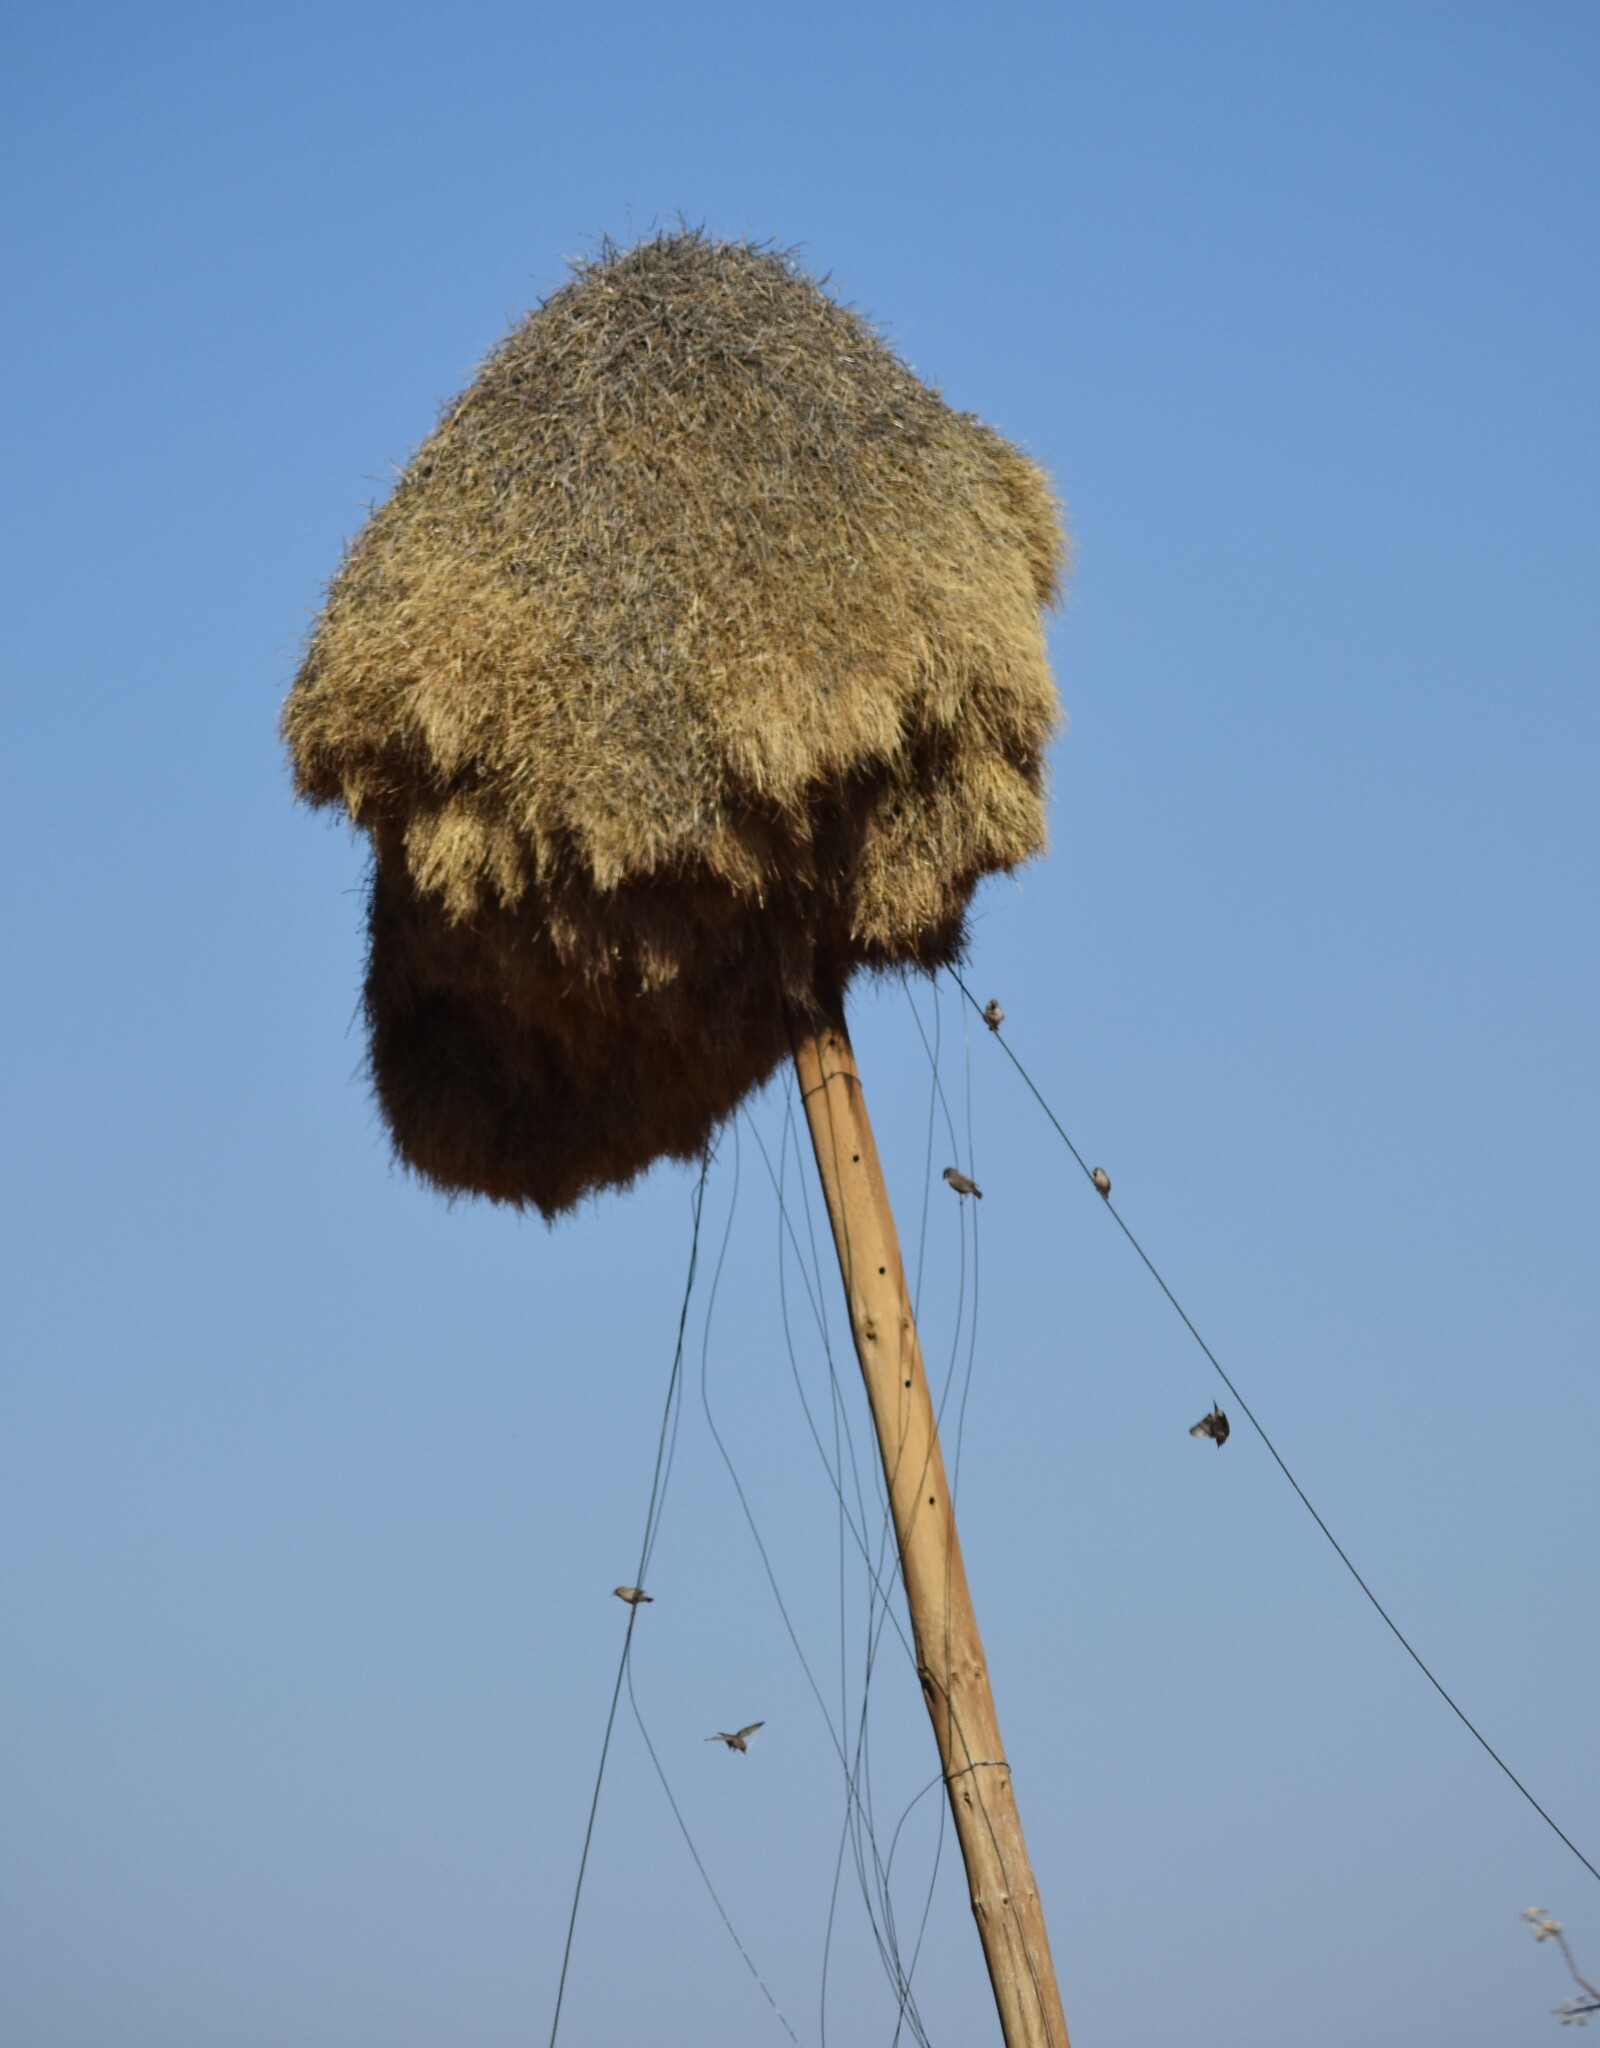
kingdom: Animalia
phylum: Chordata
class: Aves
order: Passeriformes
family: Passeridae
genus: Philetairus
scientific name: Philetairus socius
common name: Sociable weaver
